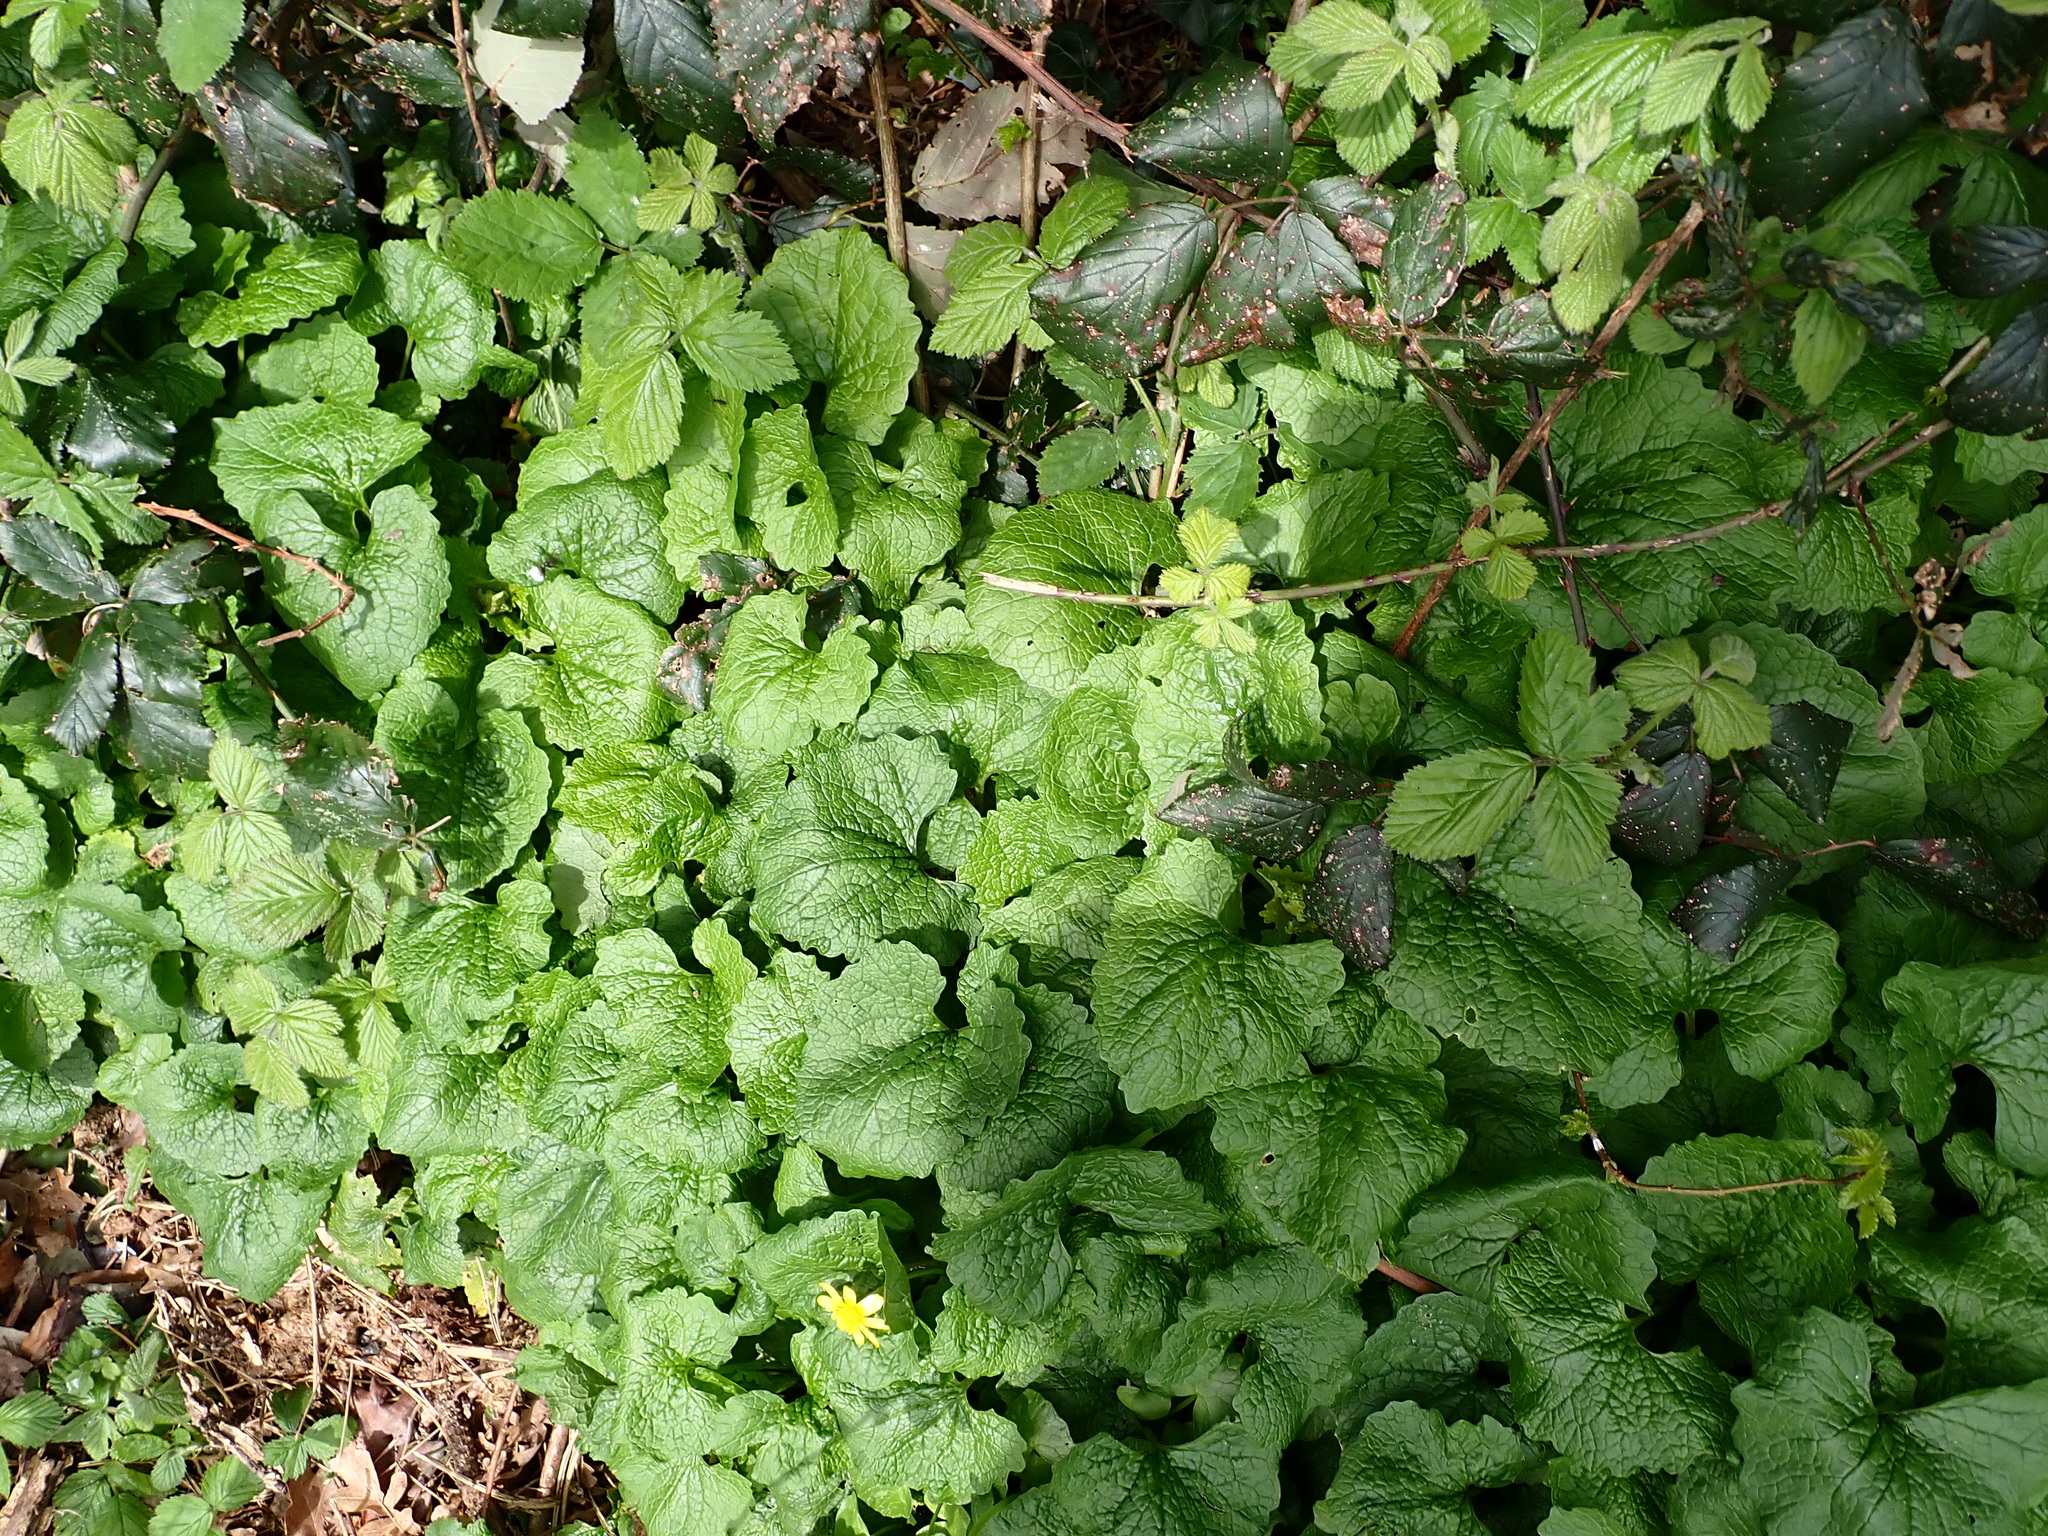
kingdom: Plantae
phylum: Tracheophyta
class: Magnoliopsida
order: Brassicales
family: Brassicaceae
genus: Alliaria
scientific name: Alliaria petiolata
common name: Garlic mustard
